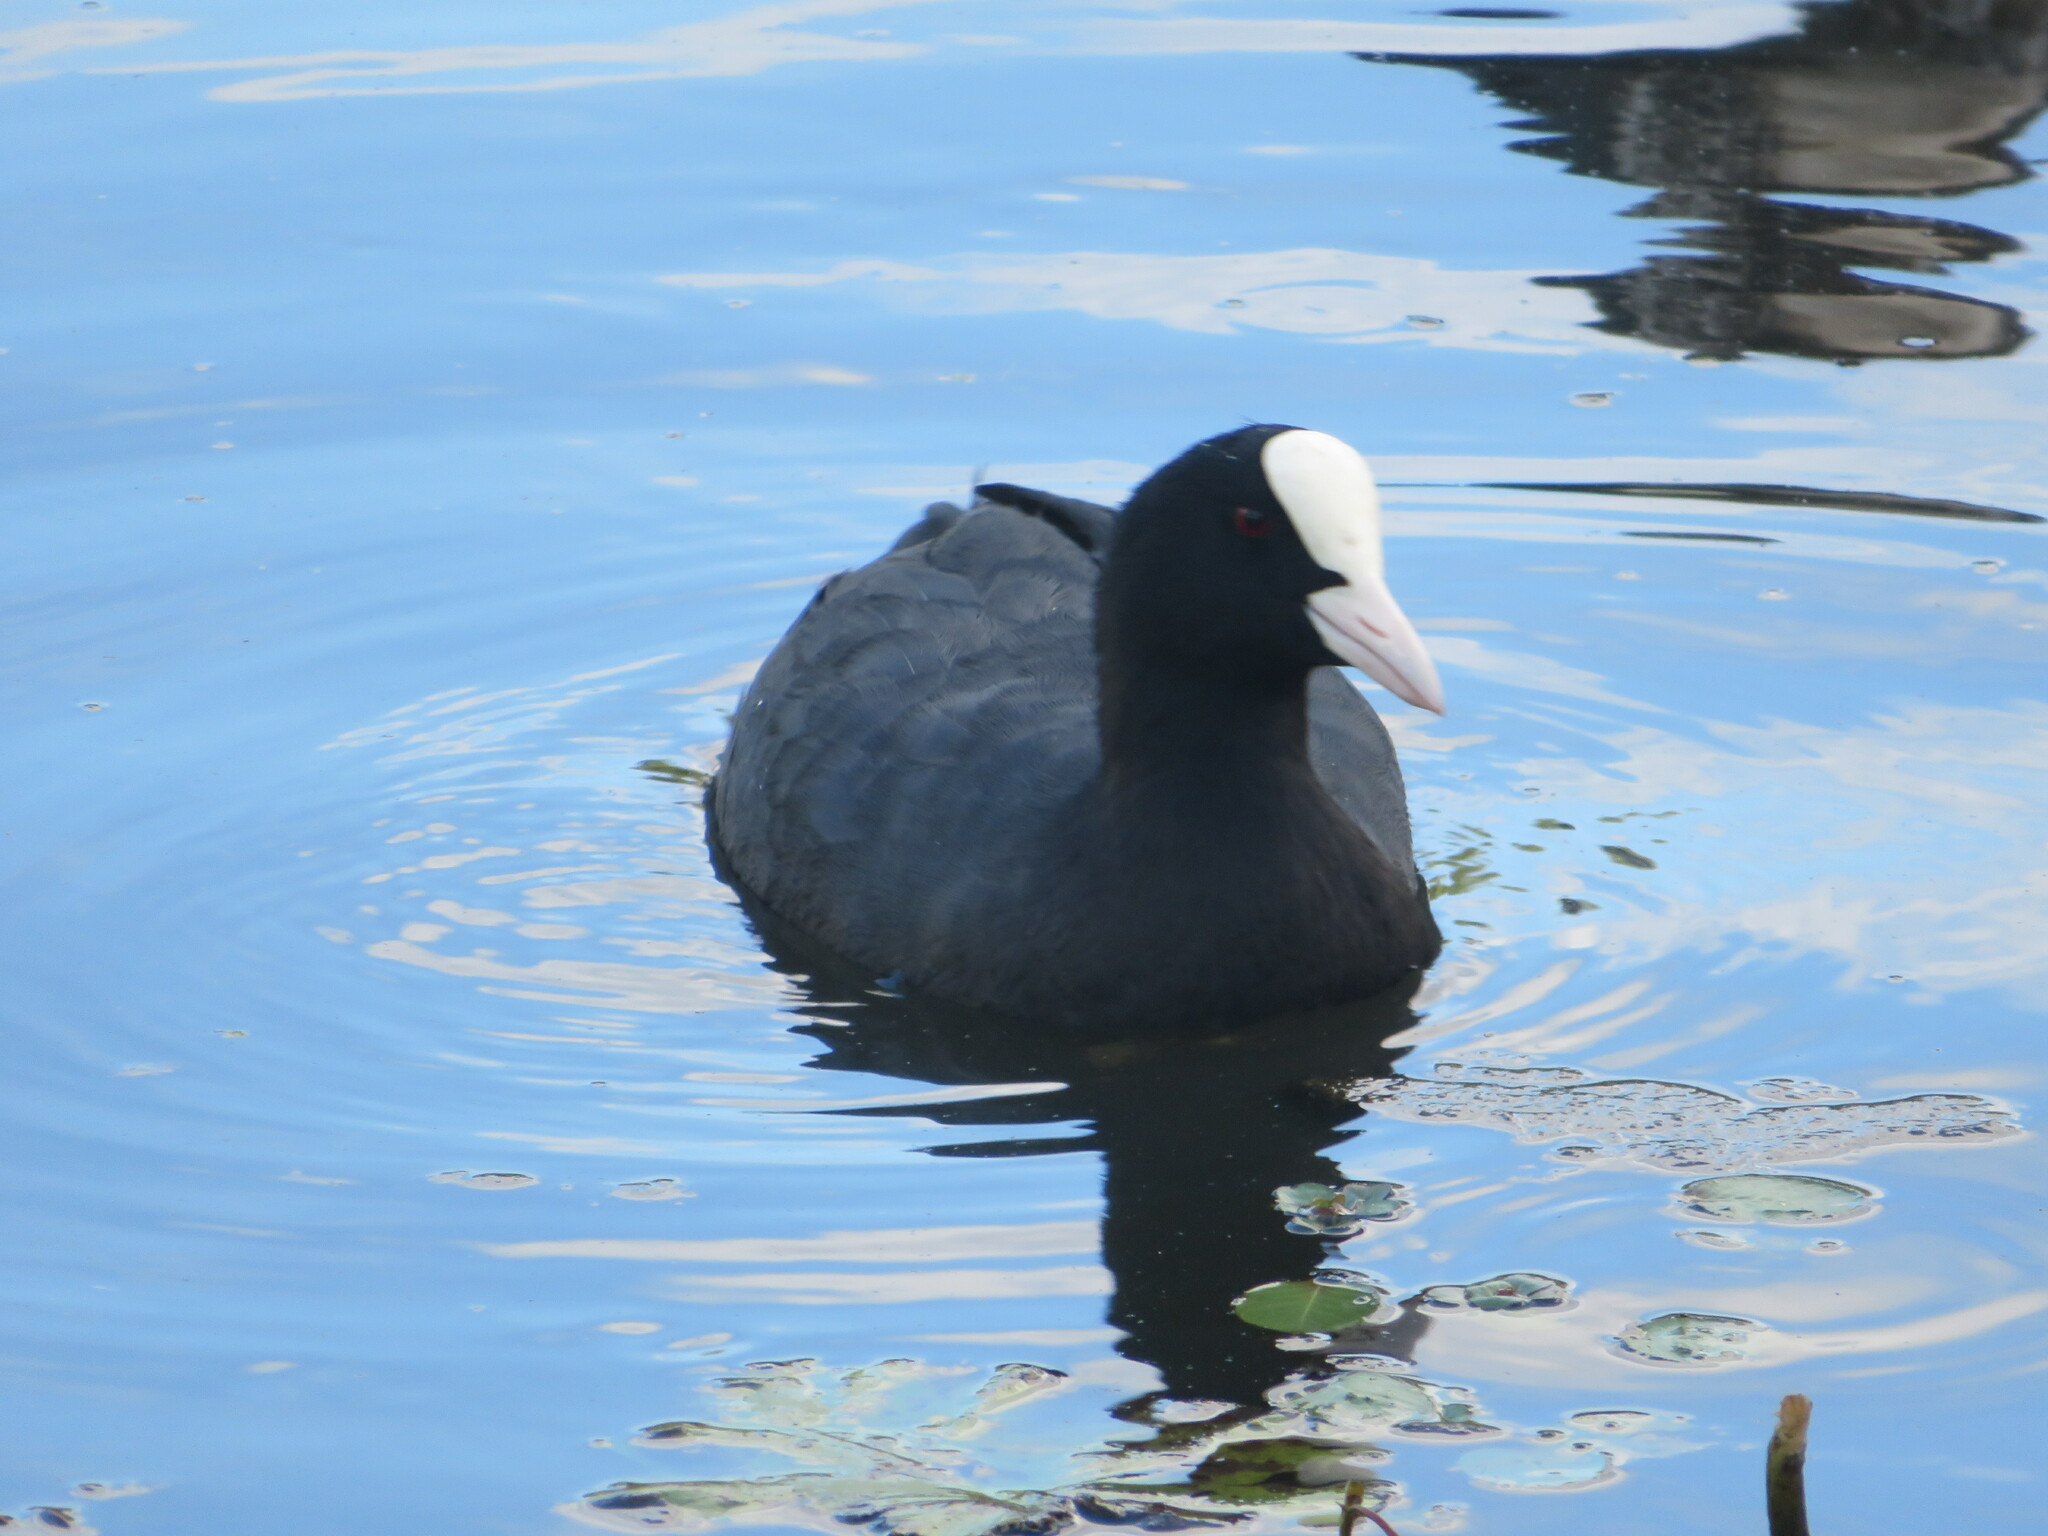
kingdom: Animalia
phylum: Chordata
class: Aves
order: Gruiformes
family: Rallidae
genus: Fulica
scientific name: Fulica atra
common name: Eurasian coot
